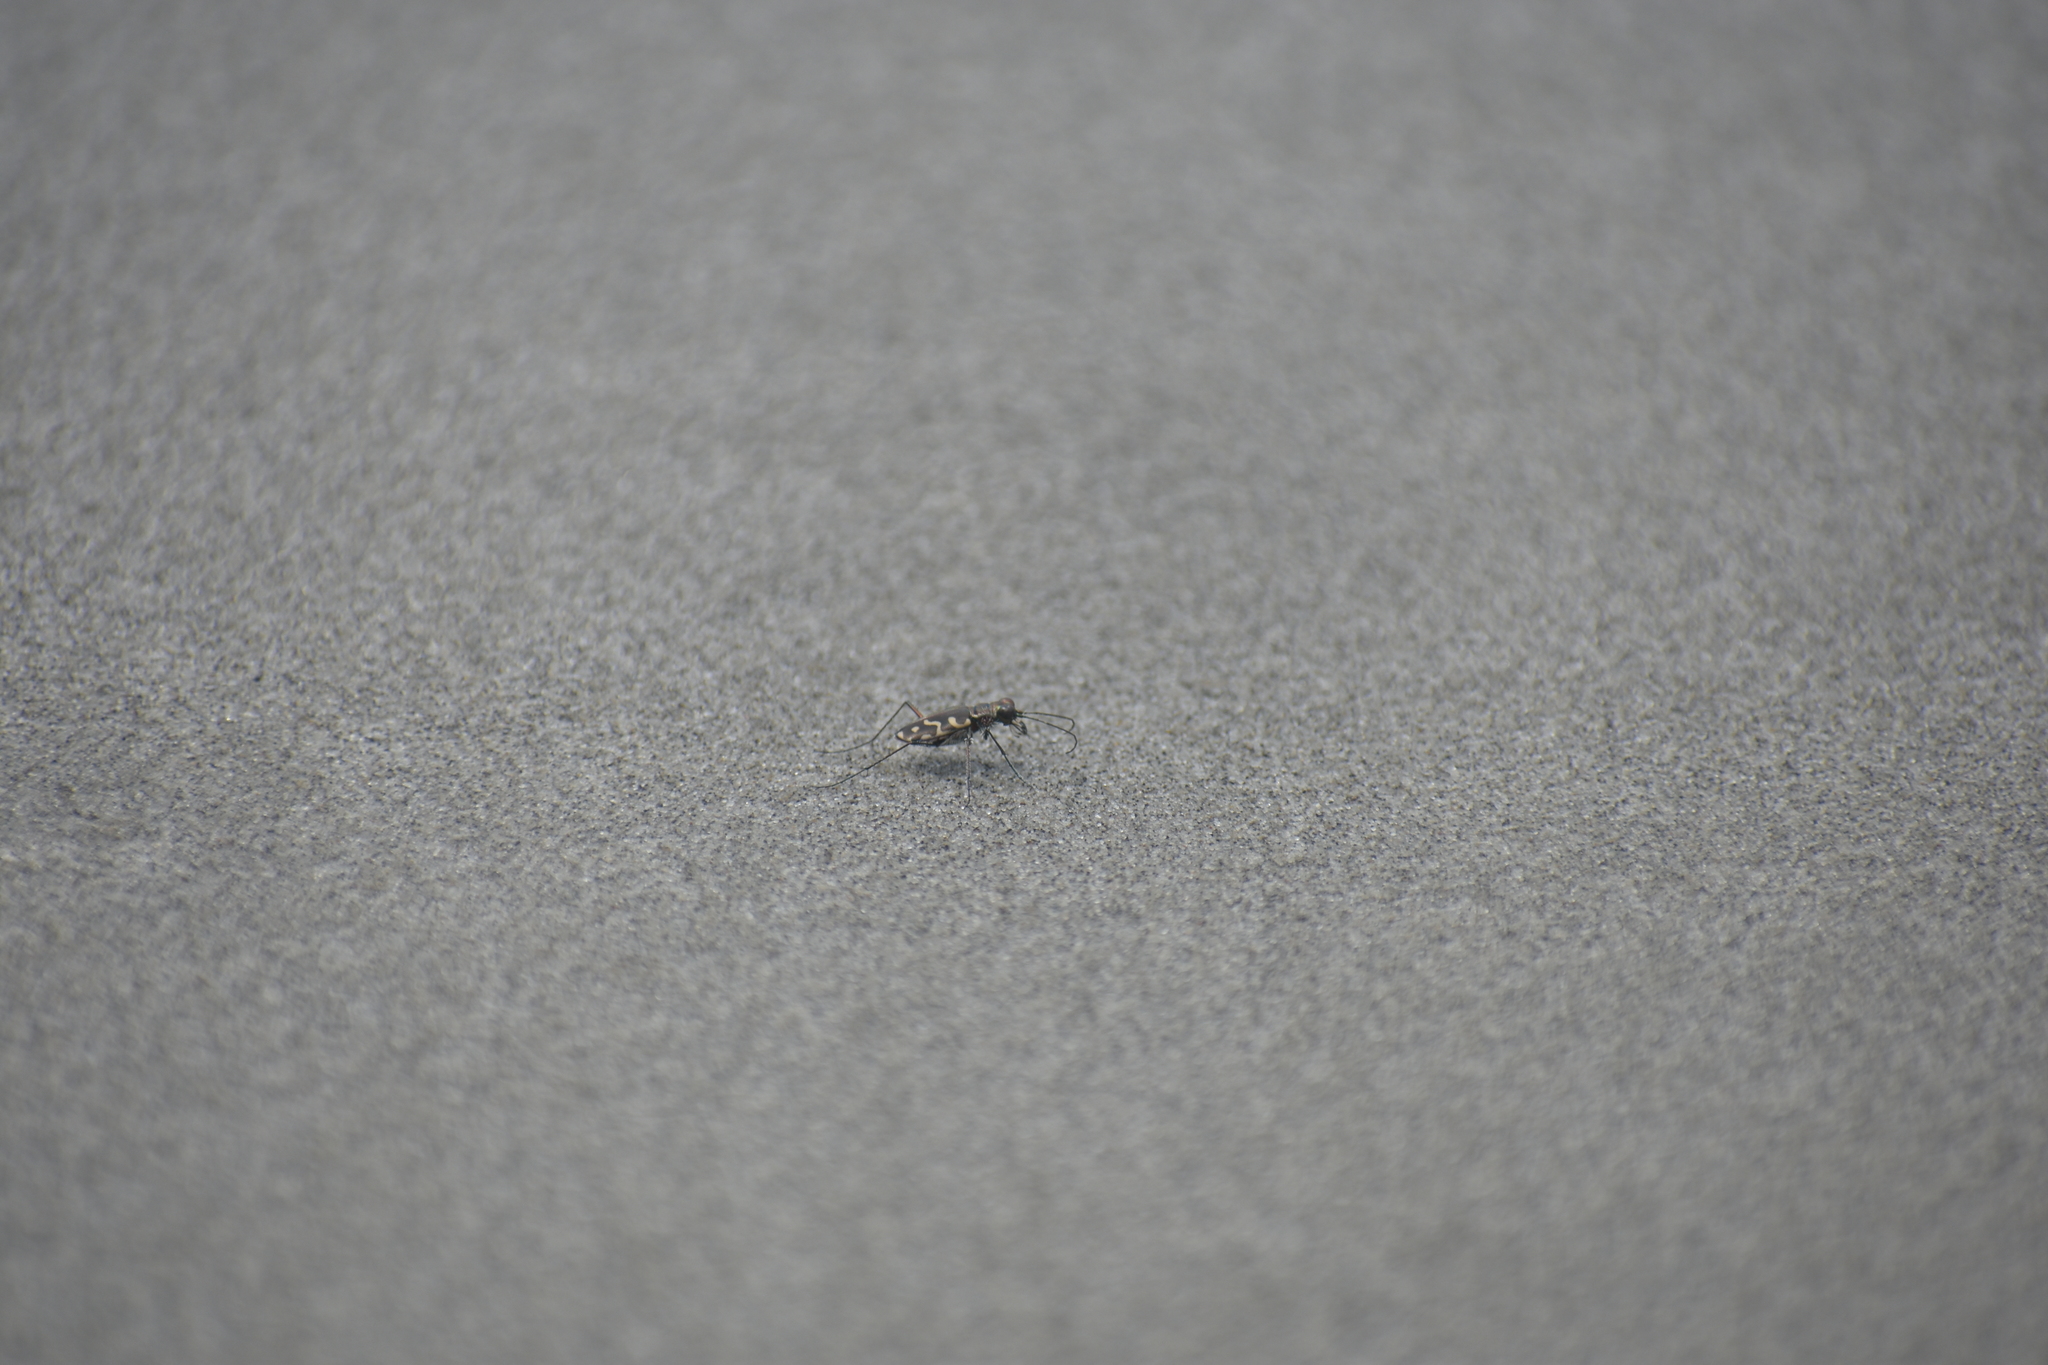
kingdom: Animalia
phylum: Arthropoda
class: Insecta
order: Coleoptera
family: Carabidae
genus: Cicindela
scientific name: Cicindela carthagena
